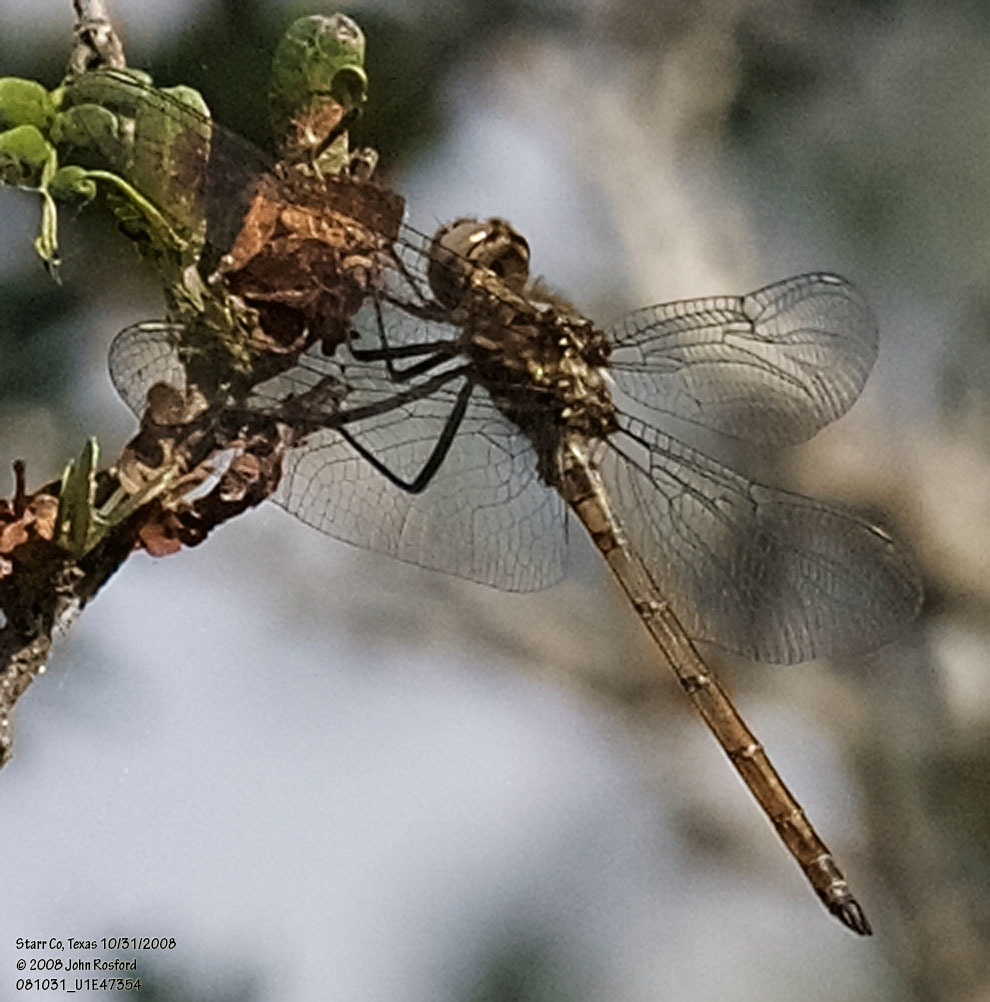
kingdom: Animalia
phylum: Arthropoda
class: Insecta
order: Odonata
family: Libellulidae
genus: Macrothemis
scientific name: Macrothemis inacuta
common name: Straw-colored sylph
